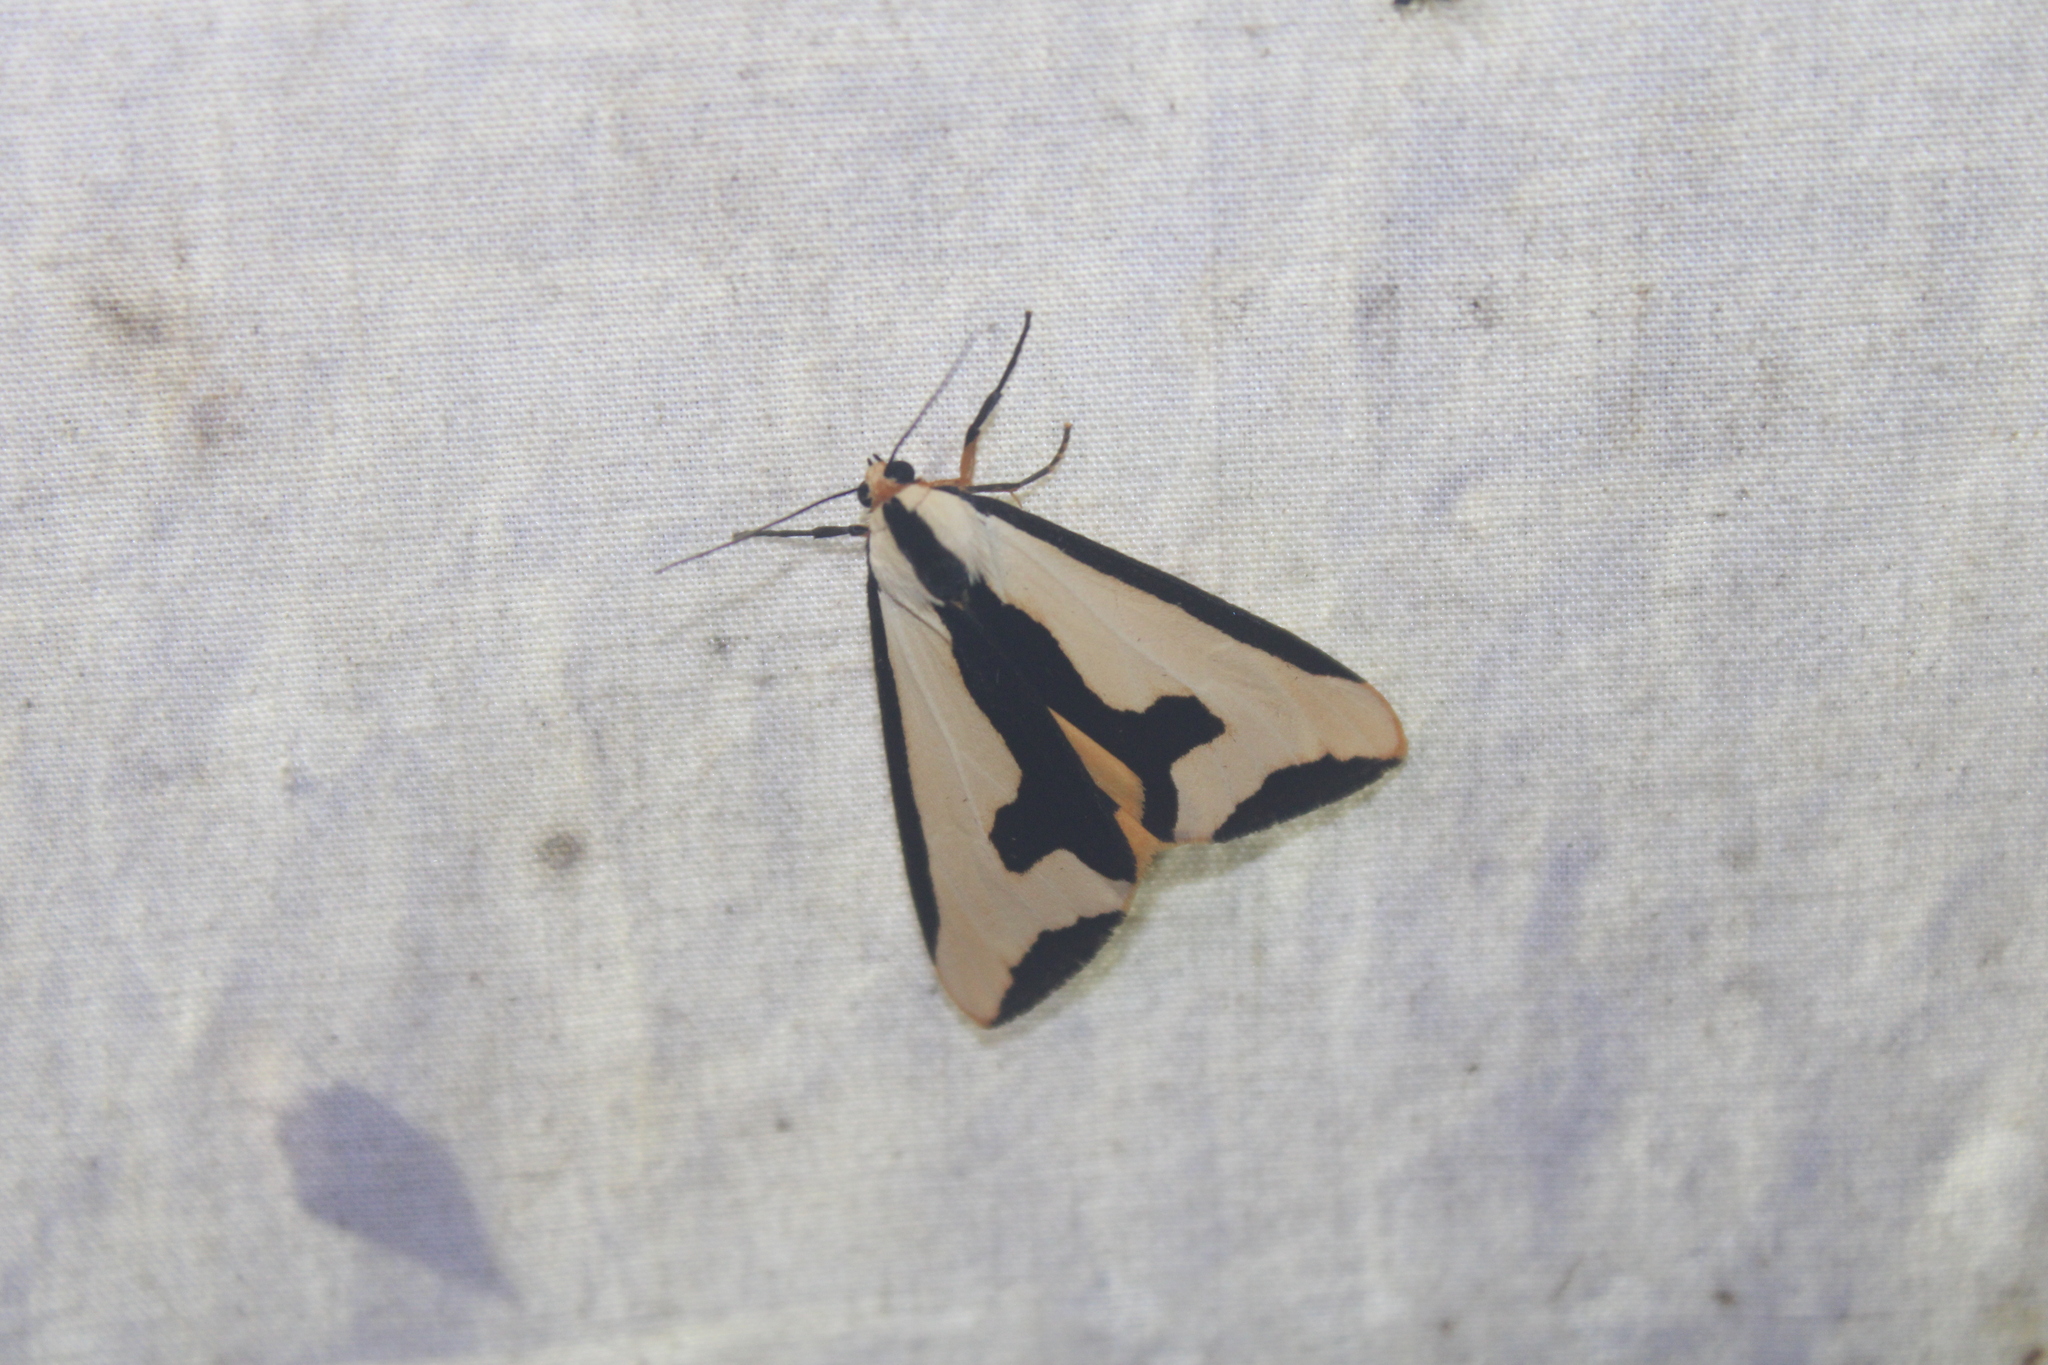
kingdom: Animalia
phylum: Arthropoda
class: Insecta
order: Lepidoptera
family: Erebidae
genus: Haploa
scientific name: Haploa clymene
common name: Clymene moth
